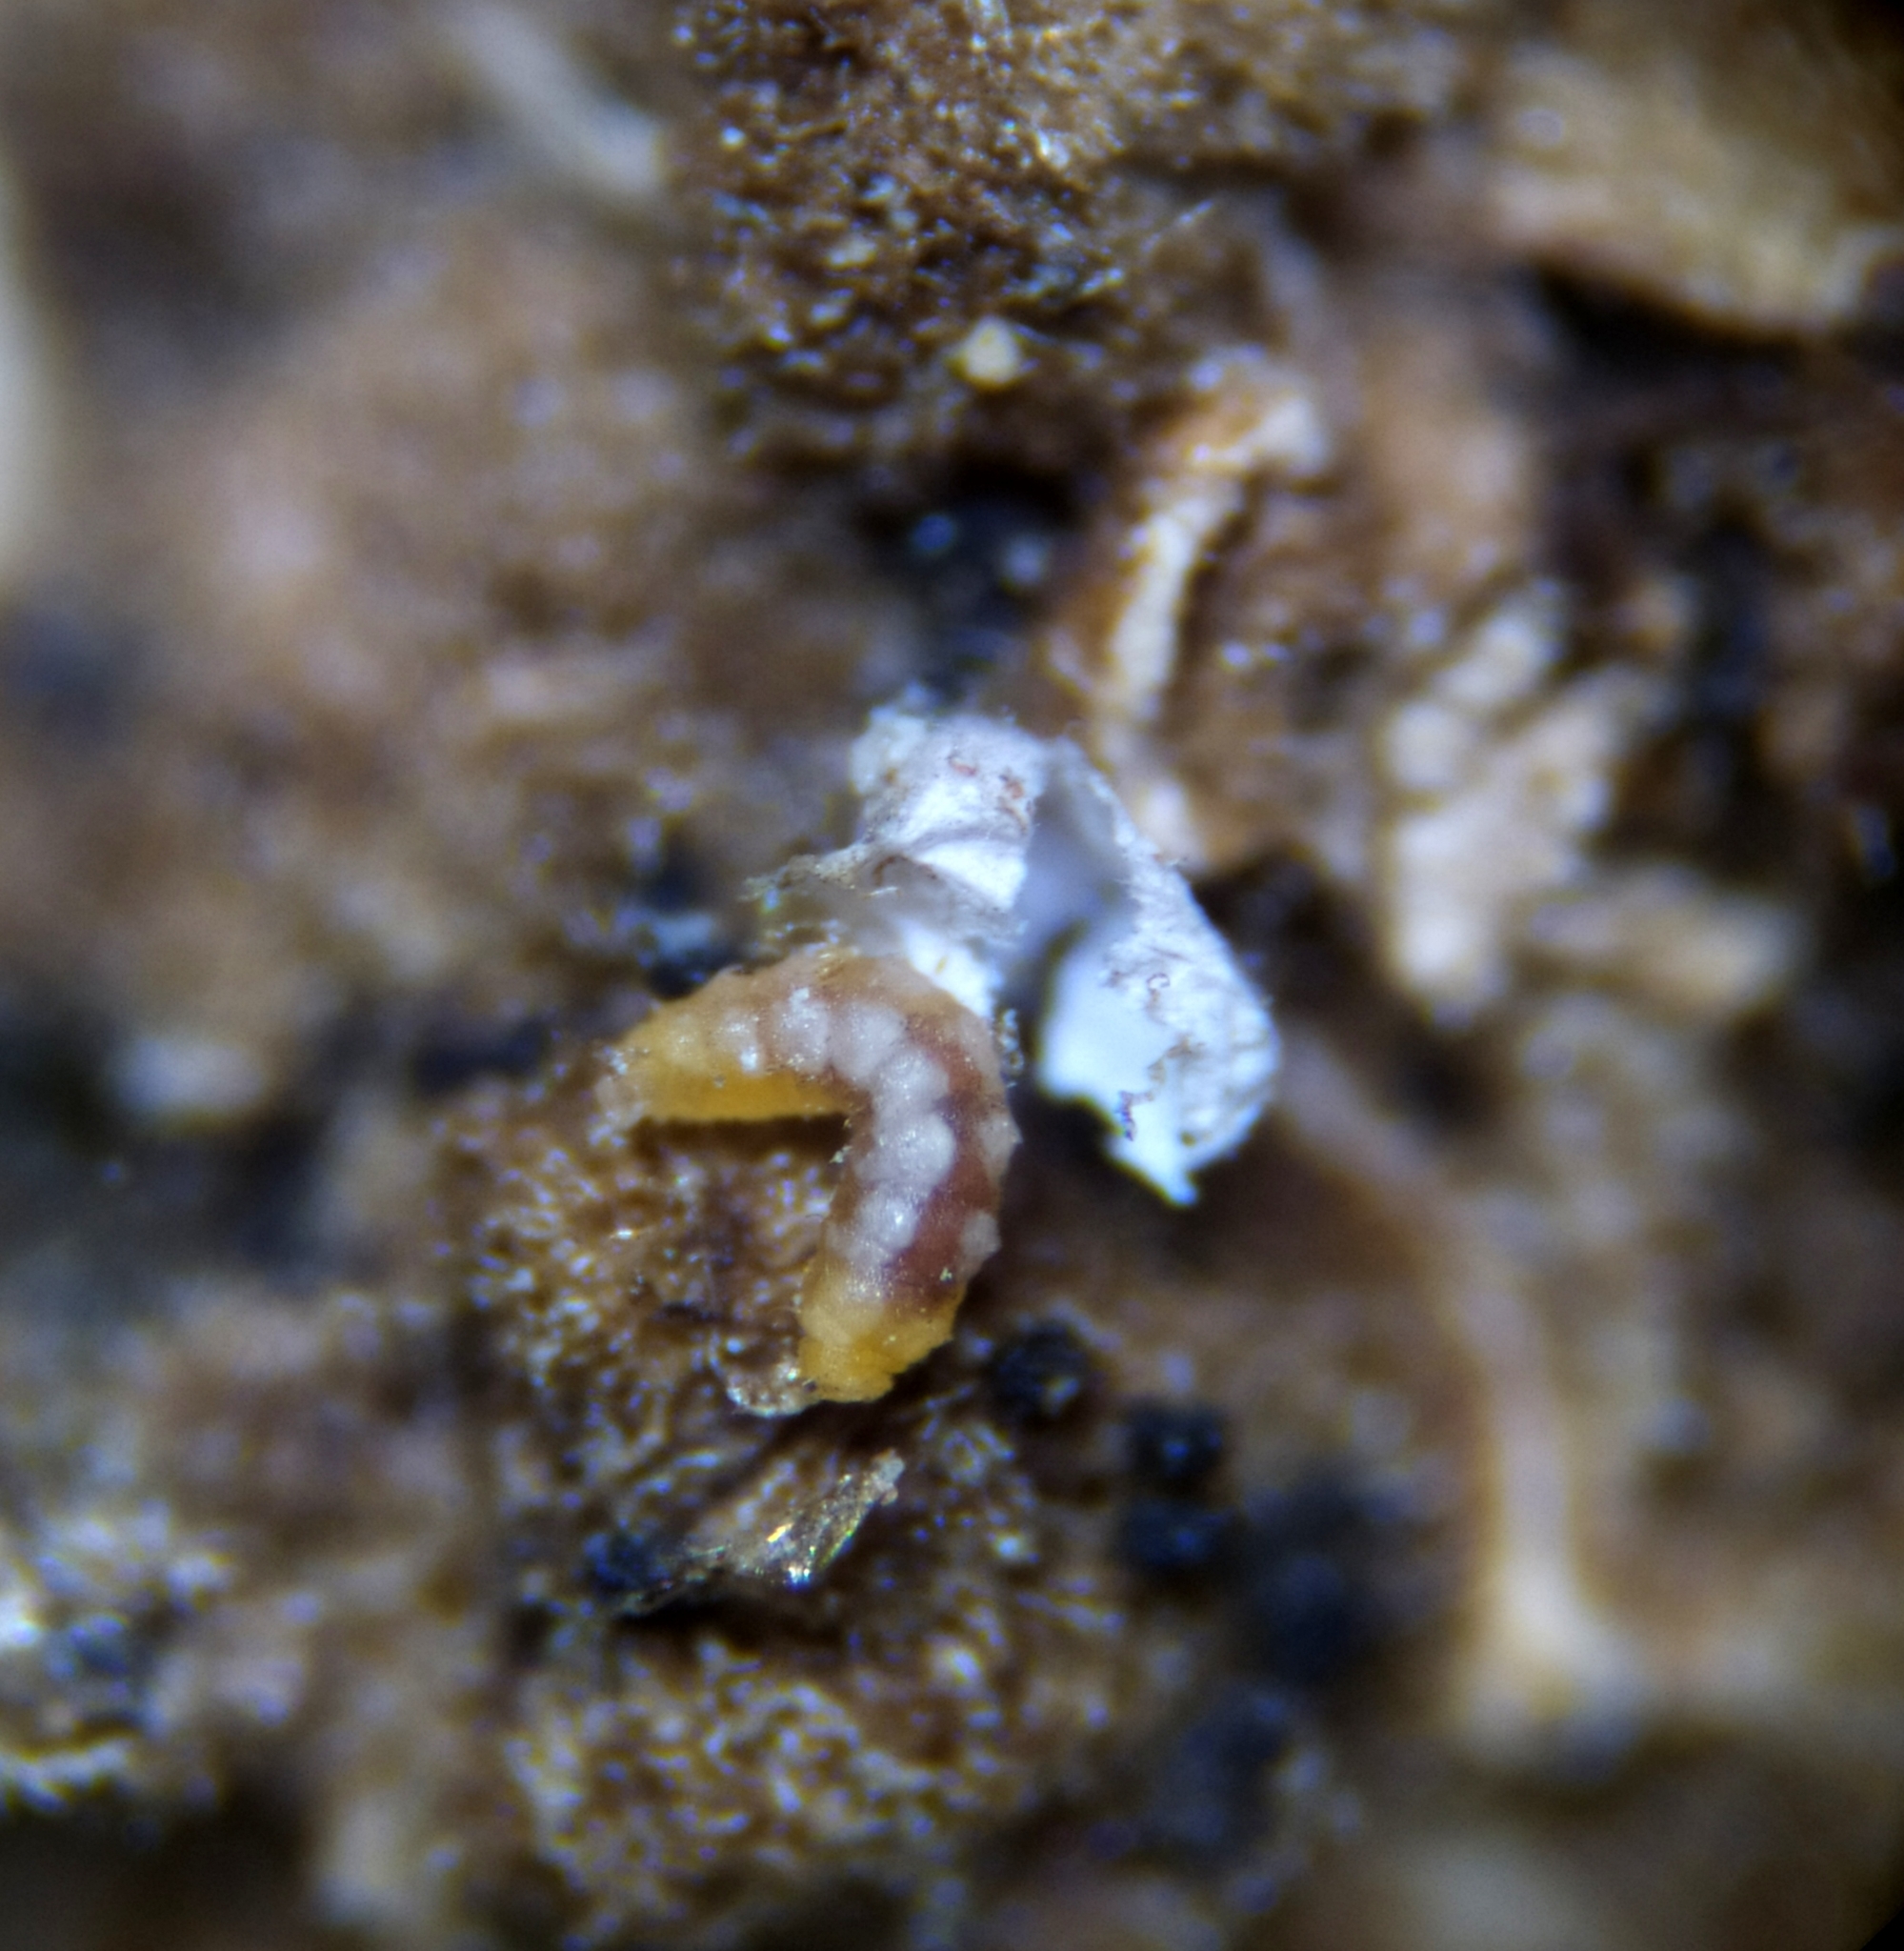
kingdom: Animalia
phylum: Arthropoda
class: Insecta
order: Diptera
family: Cecidomyiidae
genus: Arthrocnodax
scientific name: Arthrocnodax fraxinellus
